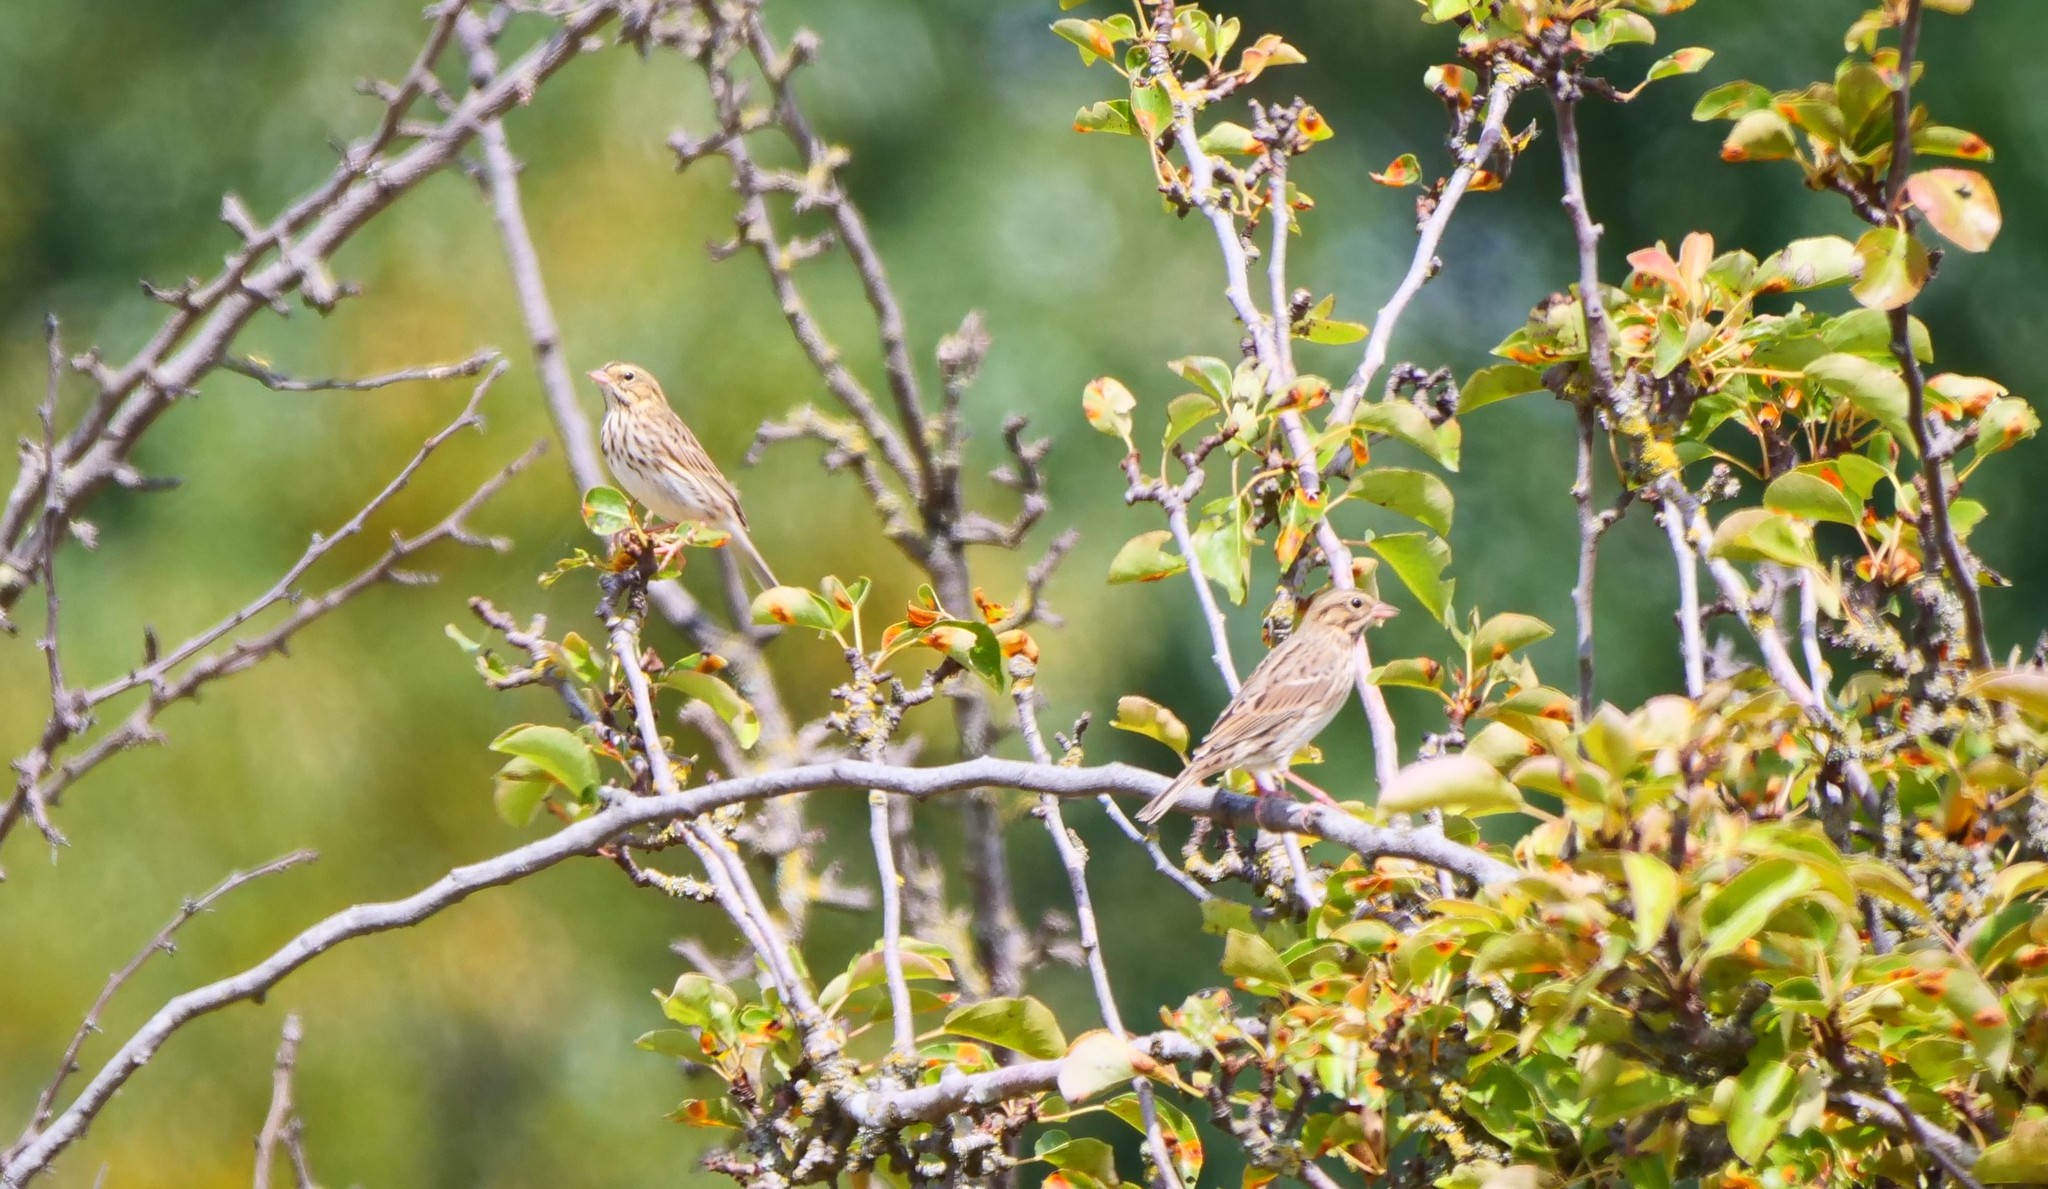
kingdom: Animalia
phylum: Chordata
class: Aves
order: Passeriformes
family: Passerellidae
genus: Passerculus
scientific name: Passerculus sandwichensis
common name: Savannah sparrow
